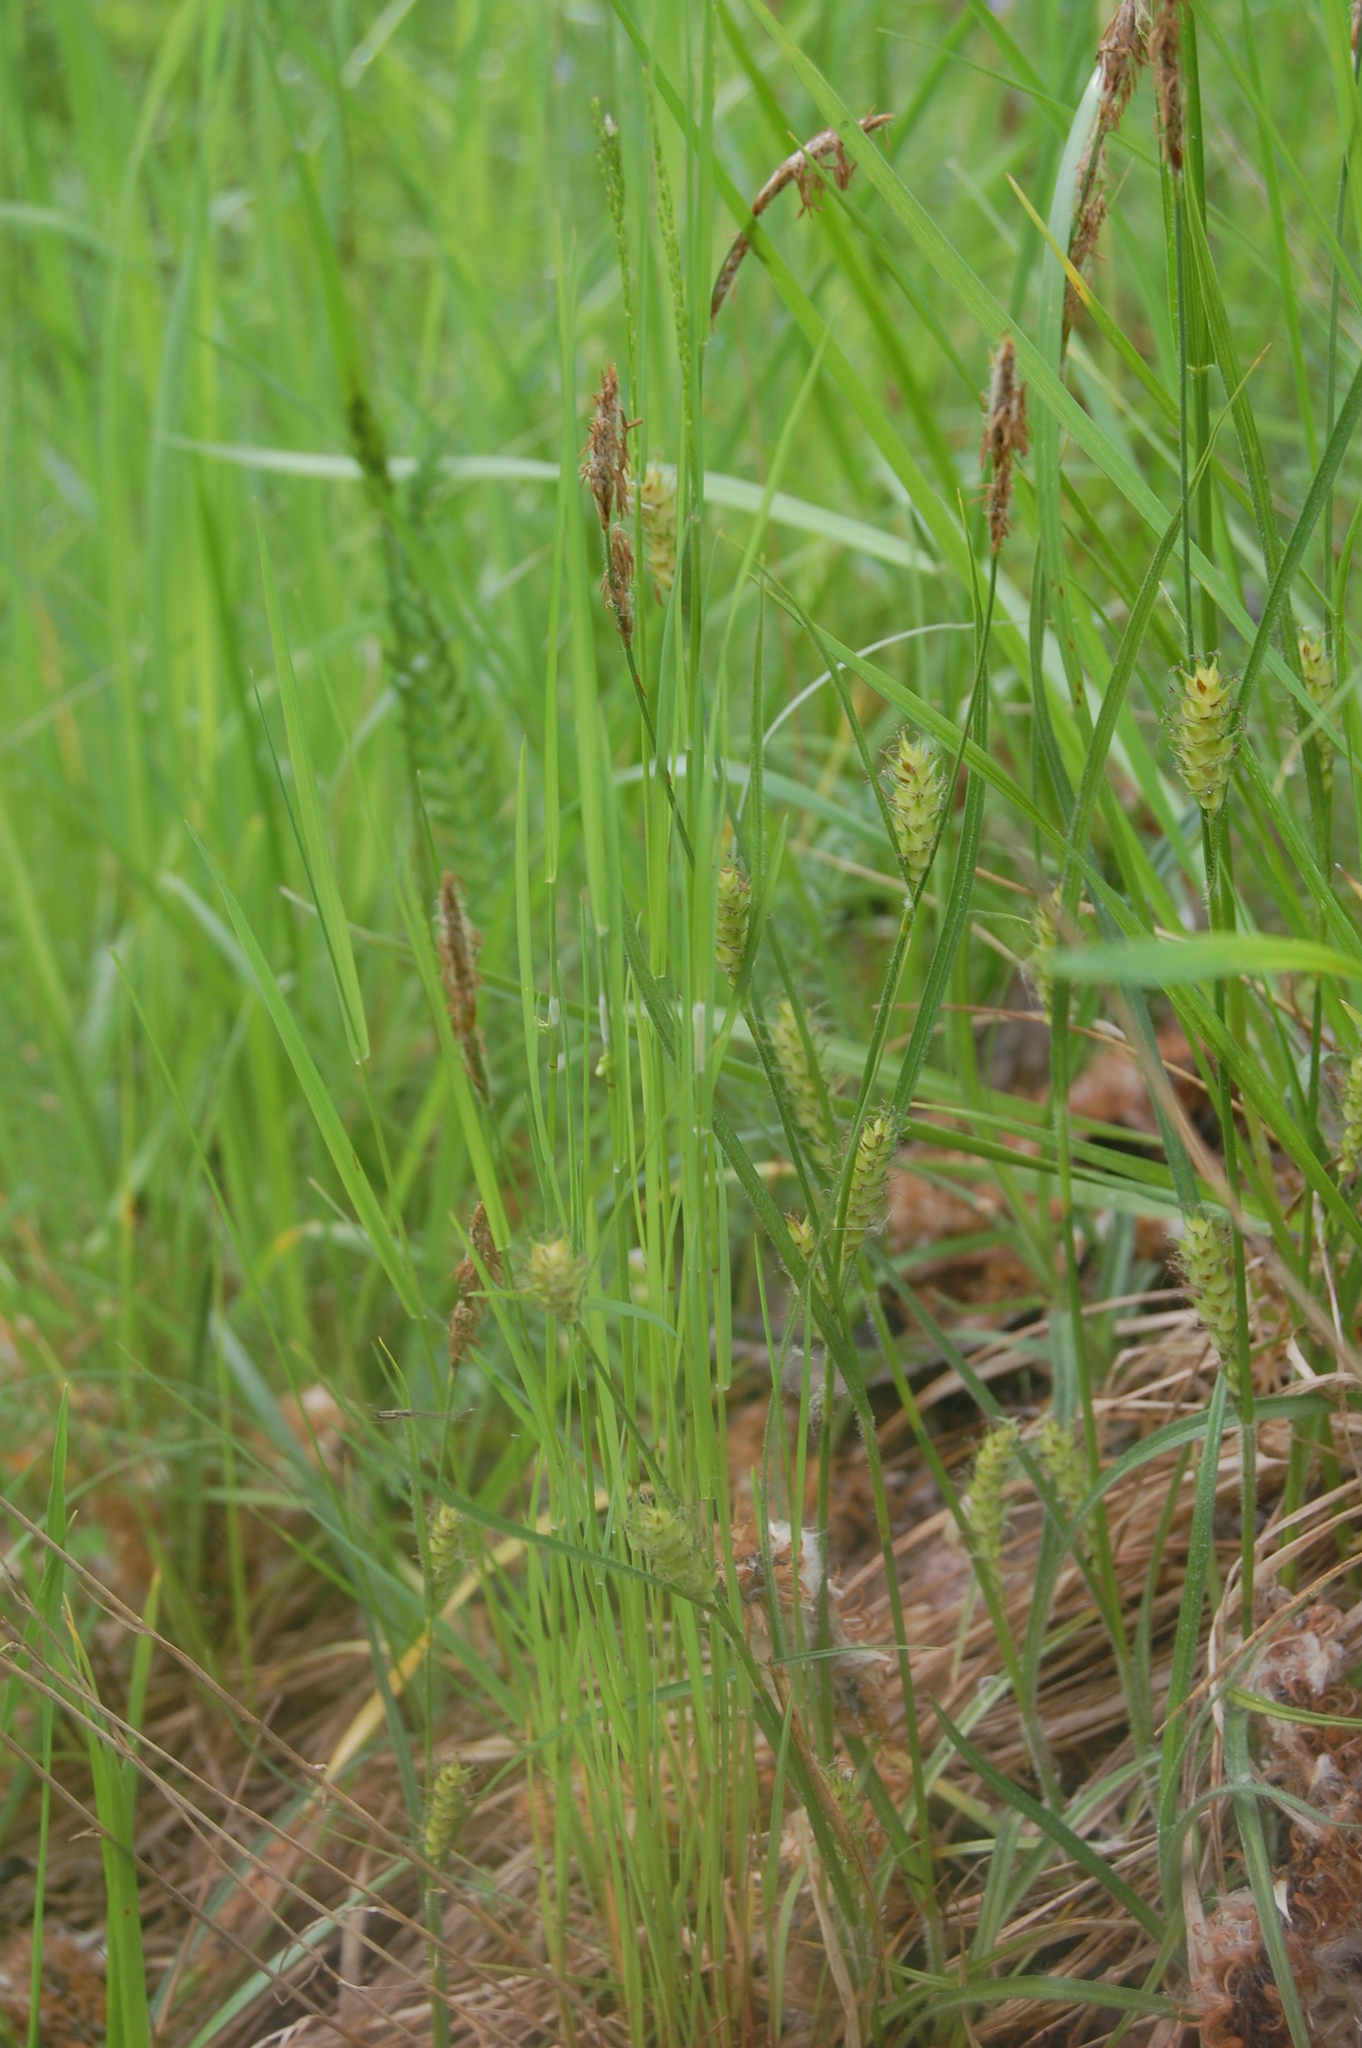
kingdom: Plantae
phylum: Tracheophyta
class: Liliopsida
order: Poales
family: Cyperaceae
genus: Carex
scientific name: Carex hirta
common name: Hairy sedge
